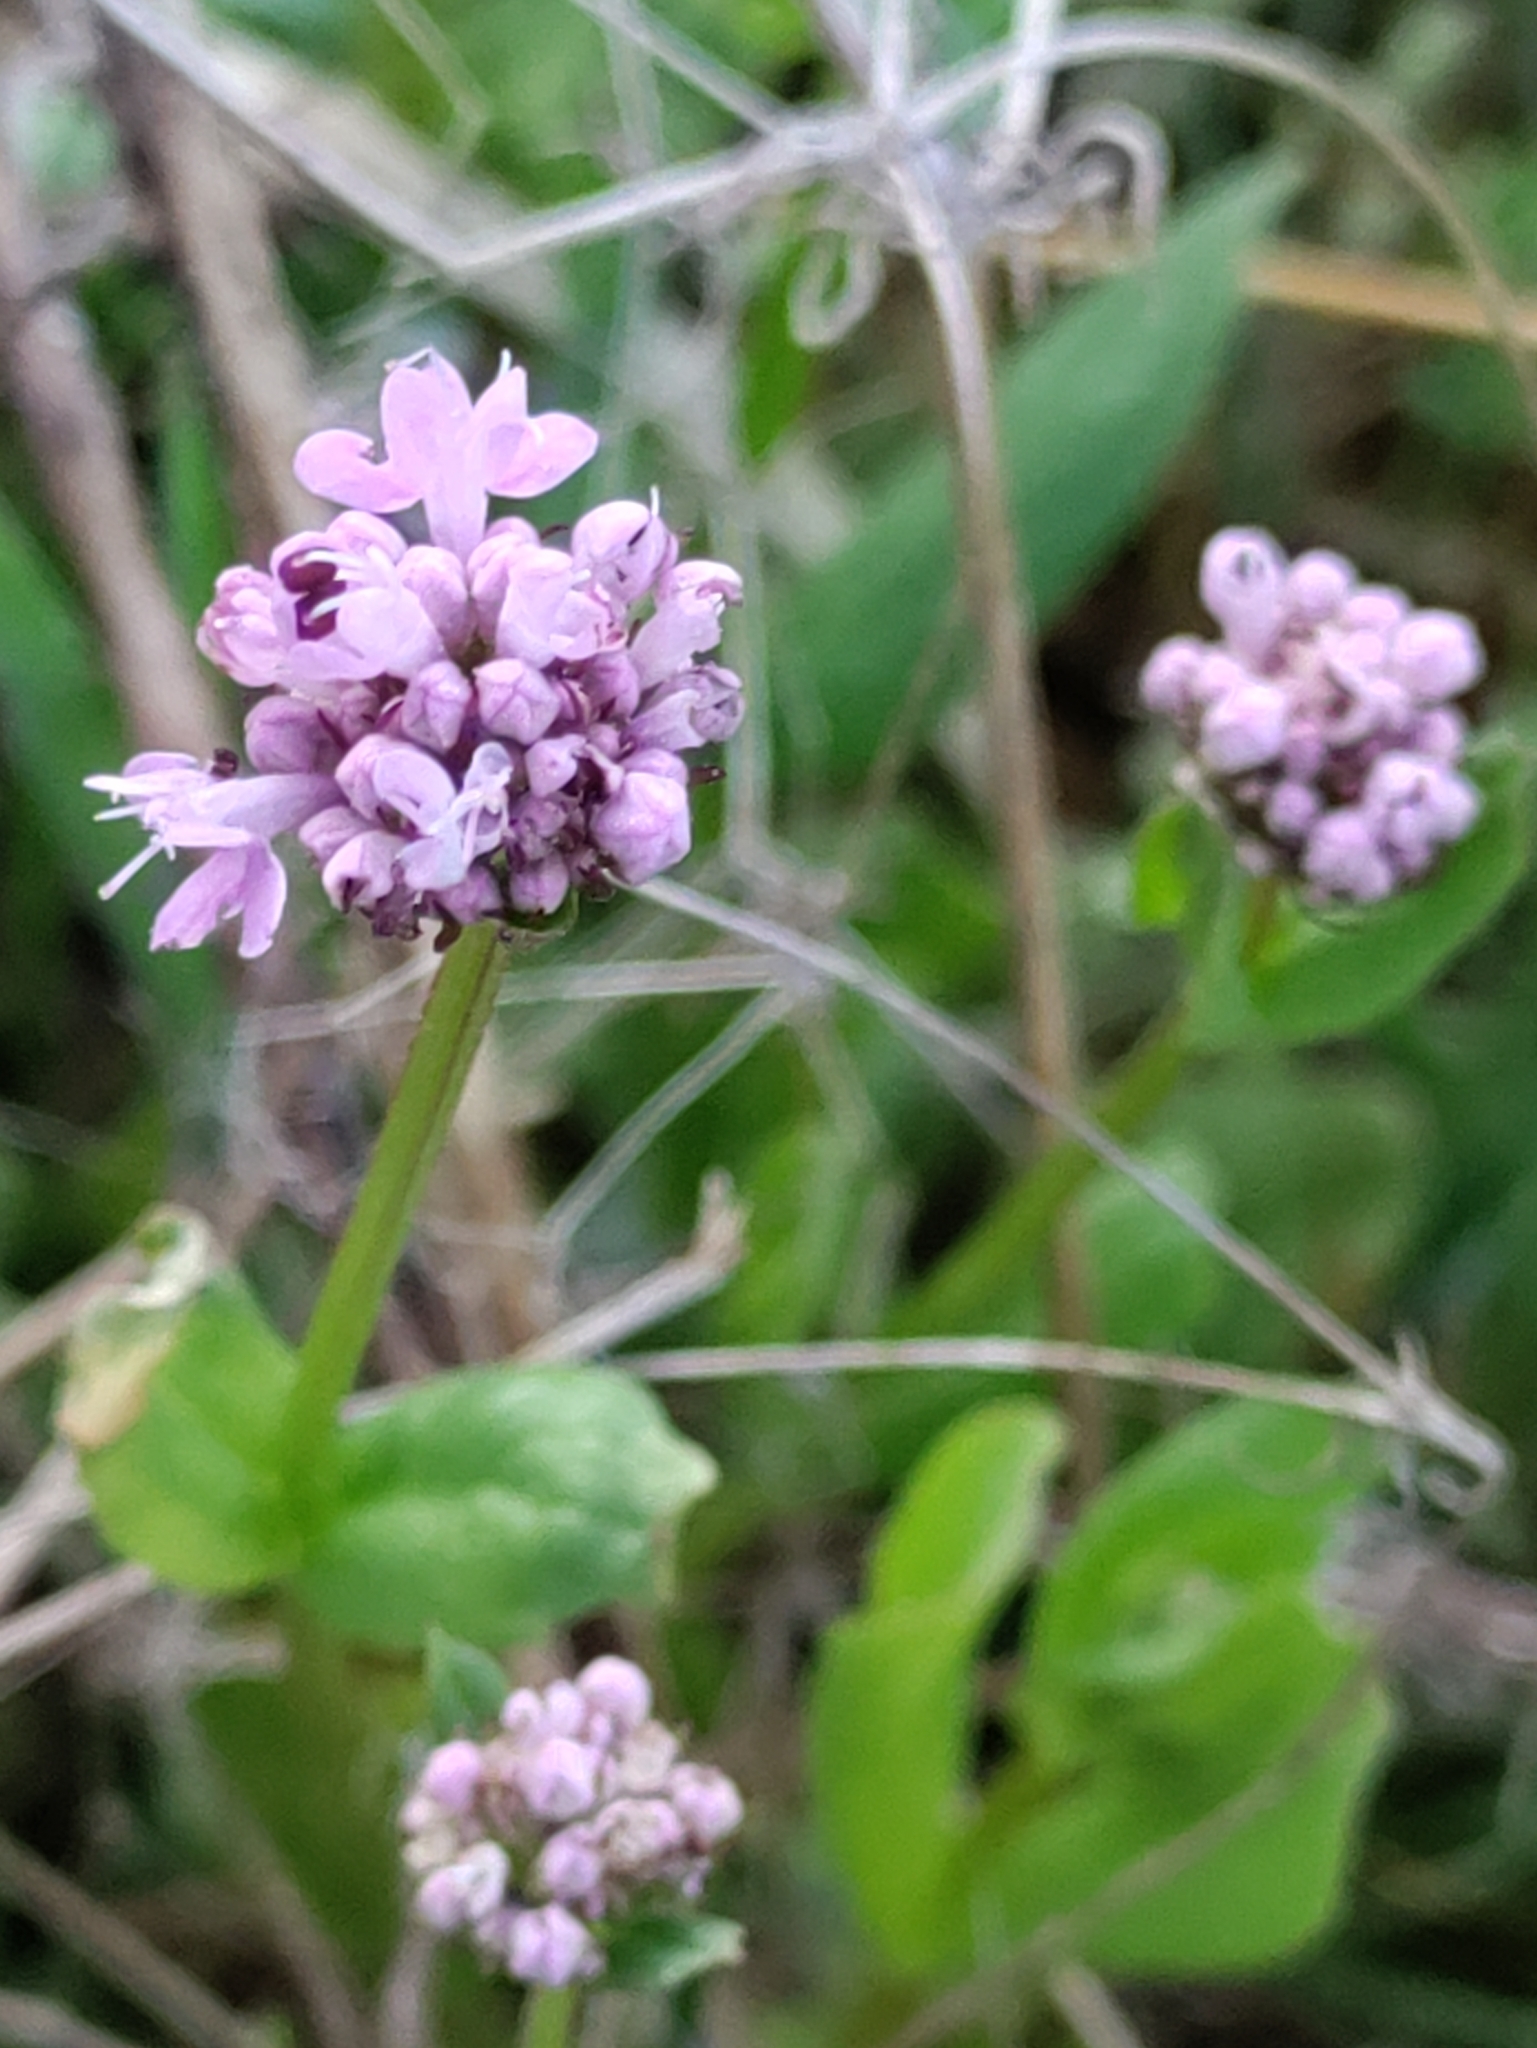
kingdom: Plantae
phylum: Tracheophyta
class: Magnoliopsida
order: Dipsacales
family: Caprifoliaceae
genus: Plectritis
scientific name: Plectritis congesta
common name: Pink plectritis
